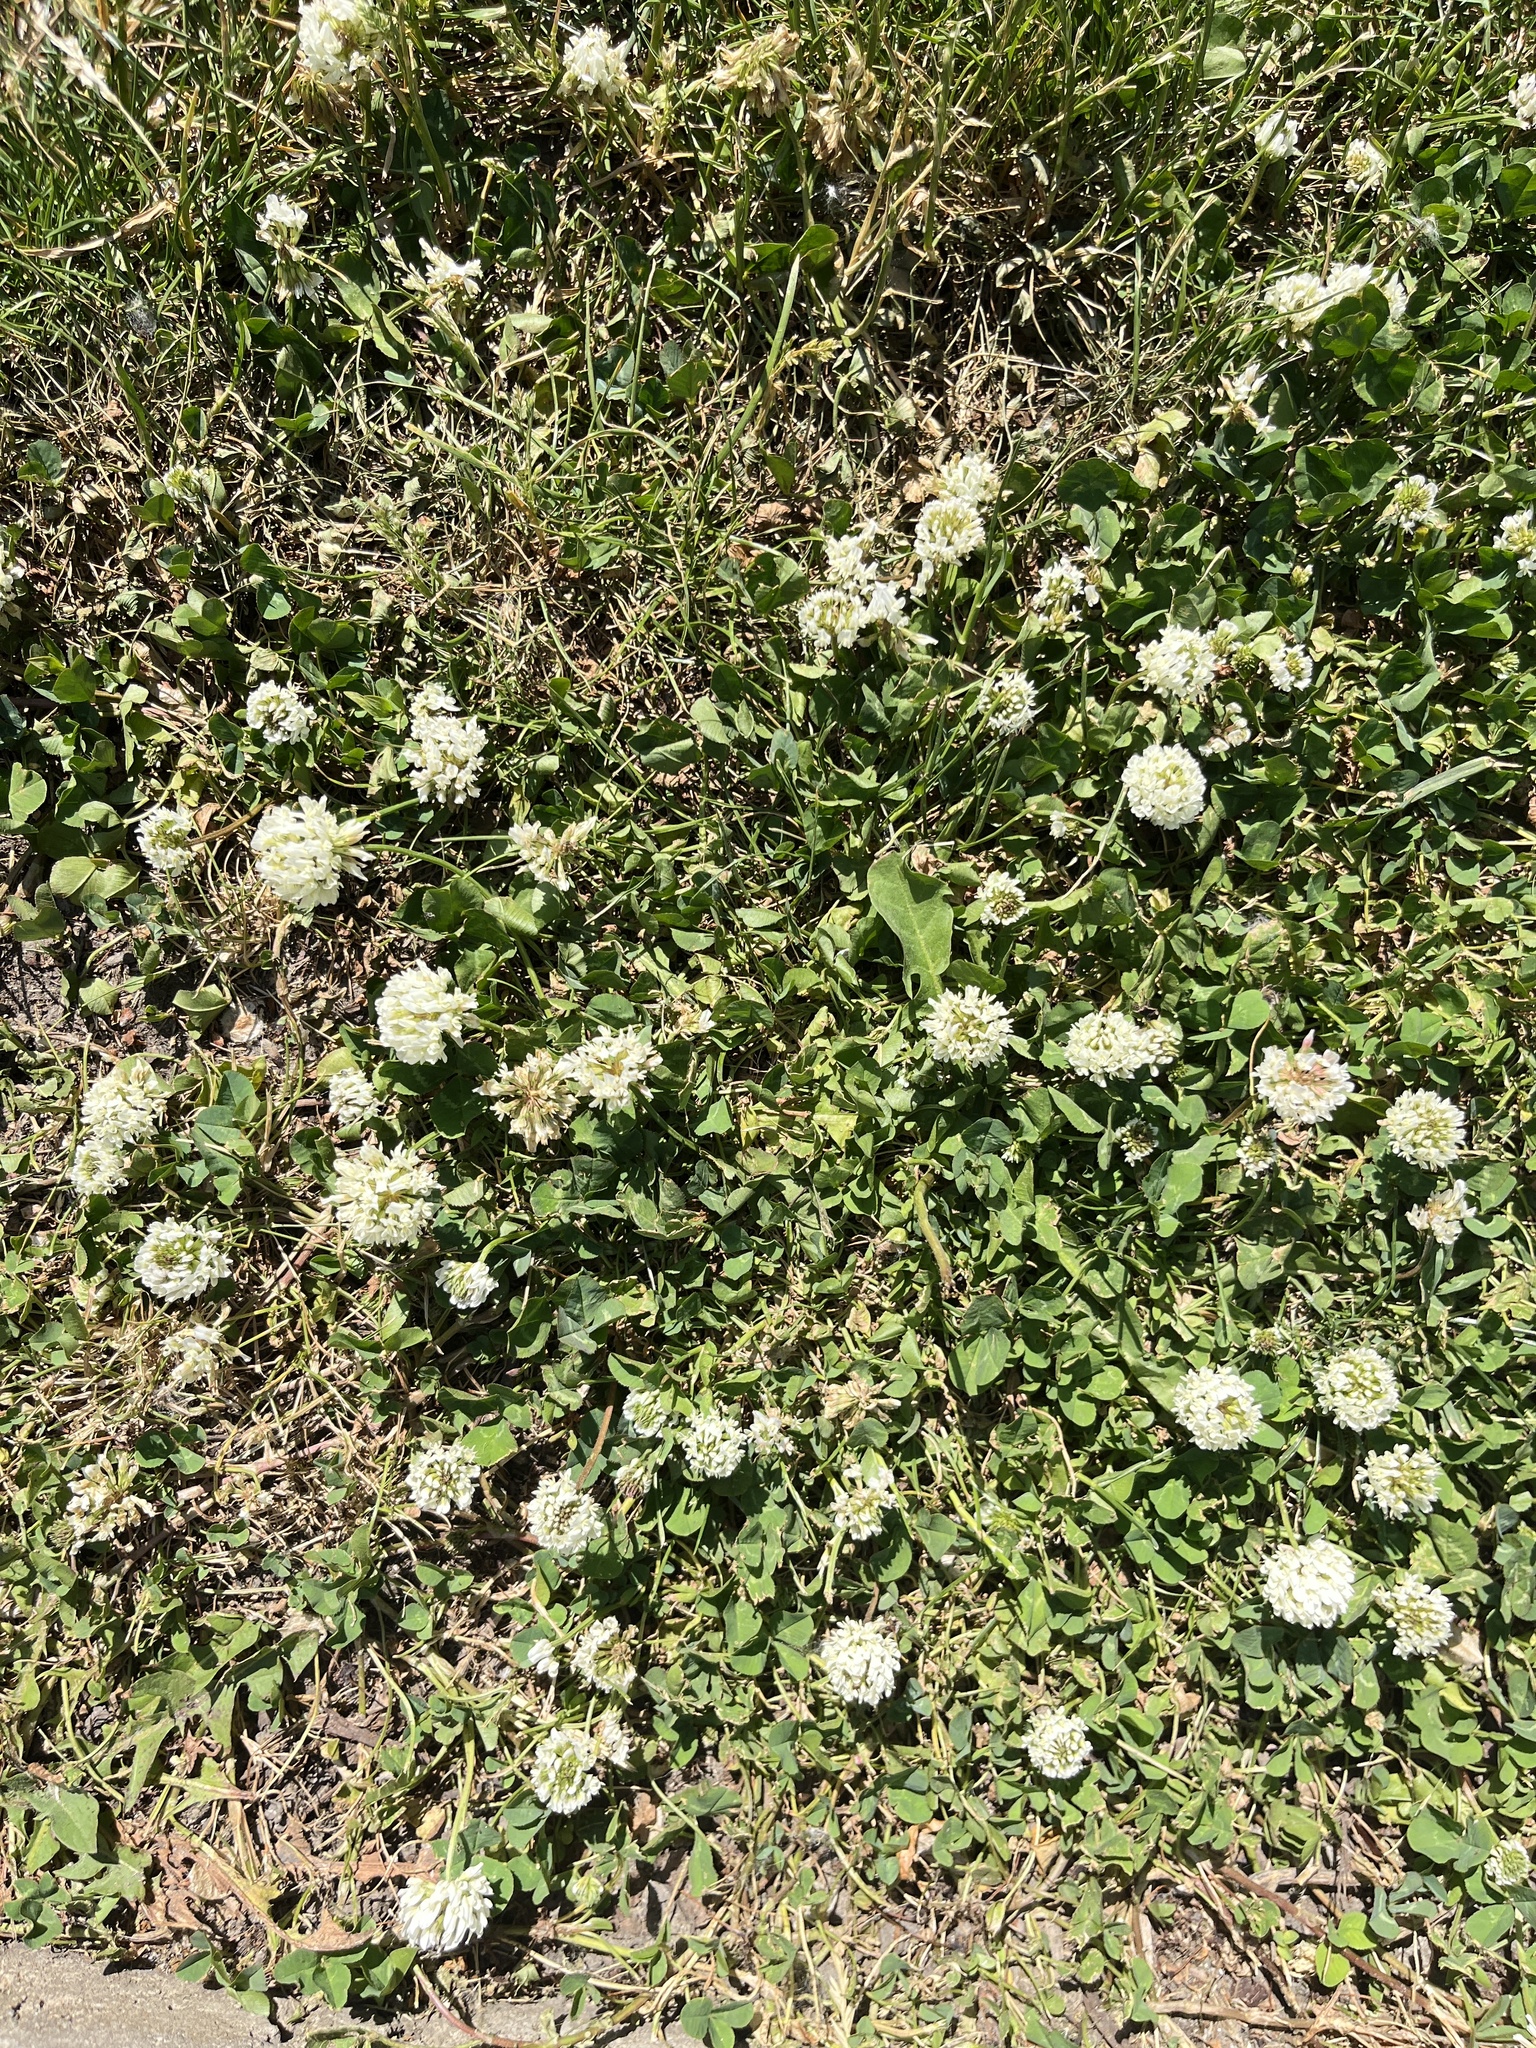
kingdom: Plantae
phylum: Tracheophyta
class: Magnoliopsida
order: Fabales
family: Fabaceae
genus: Trifolium
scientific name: Trifolium repens
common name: White clover
